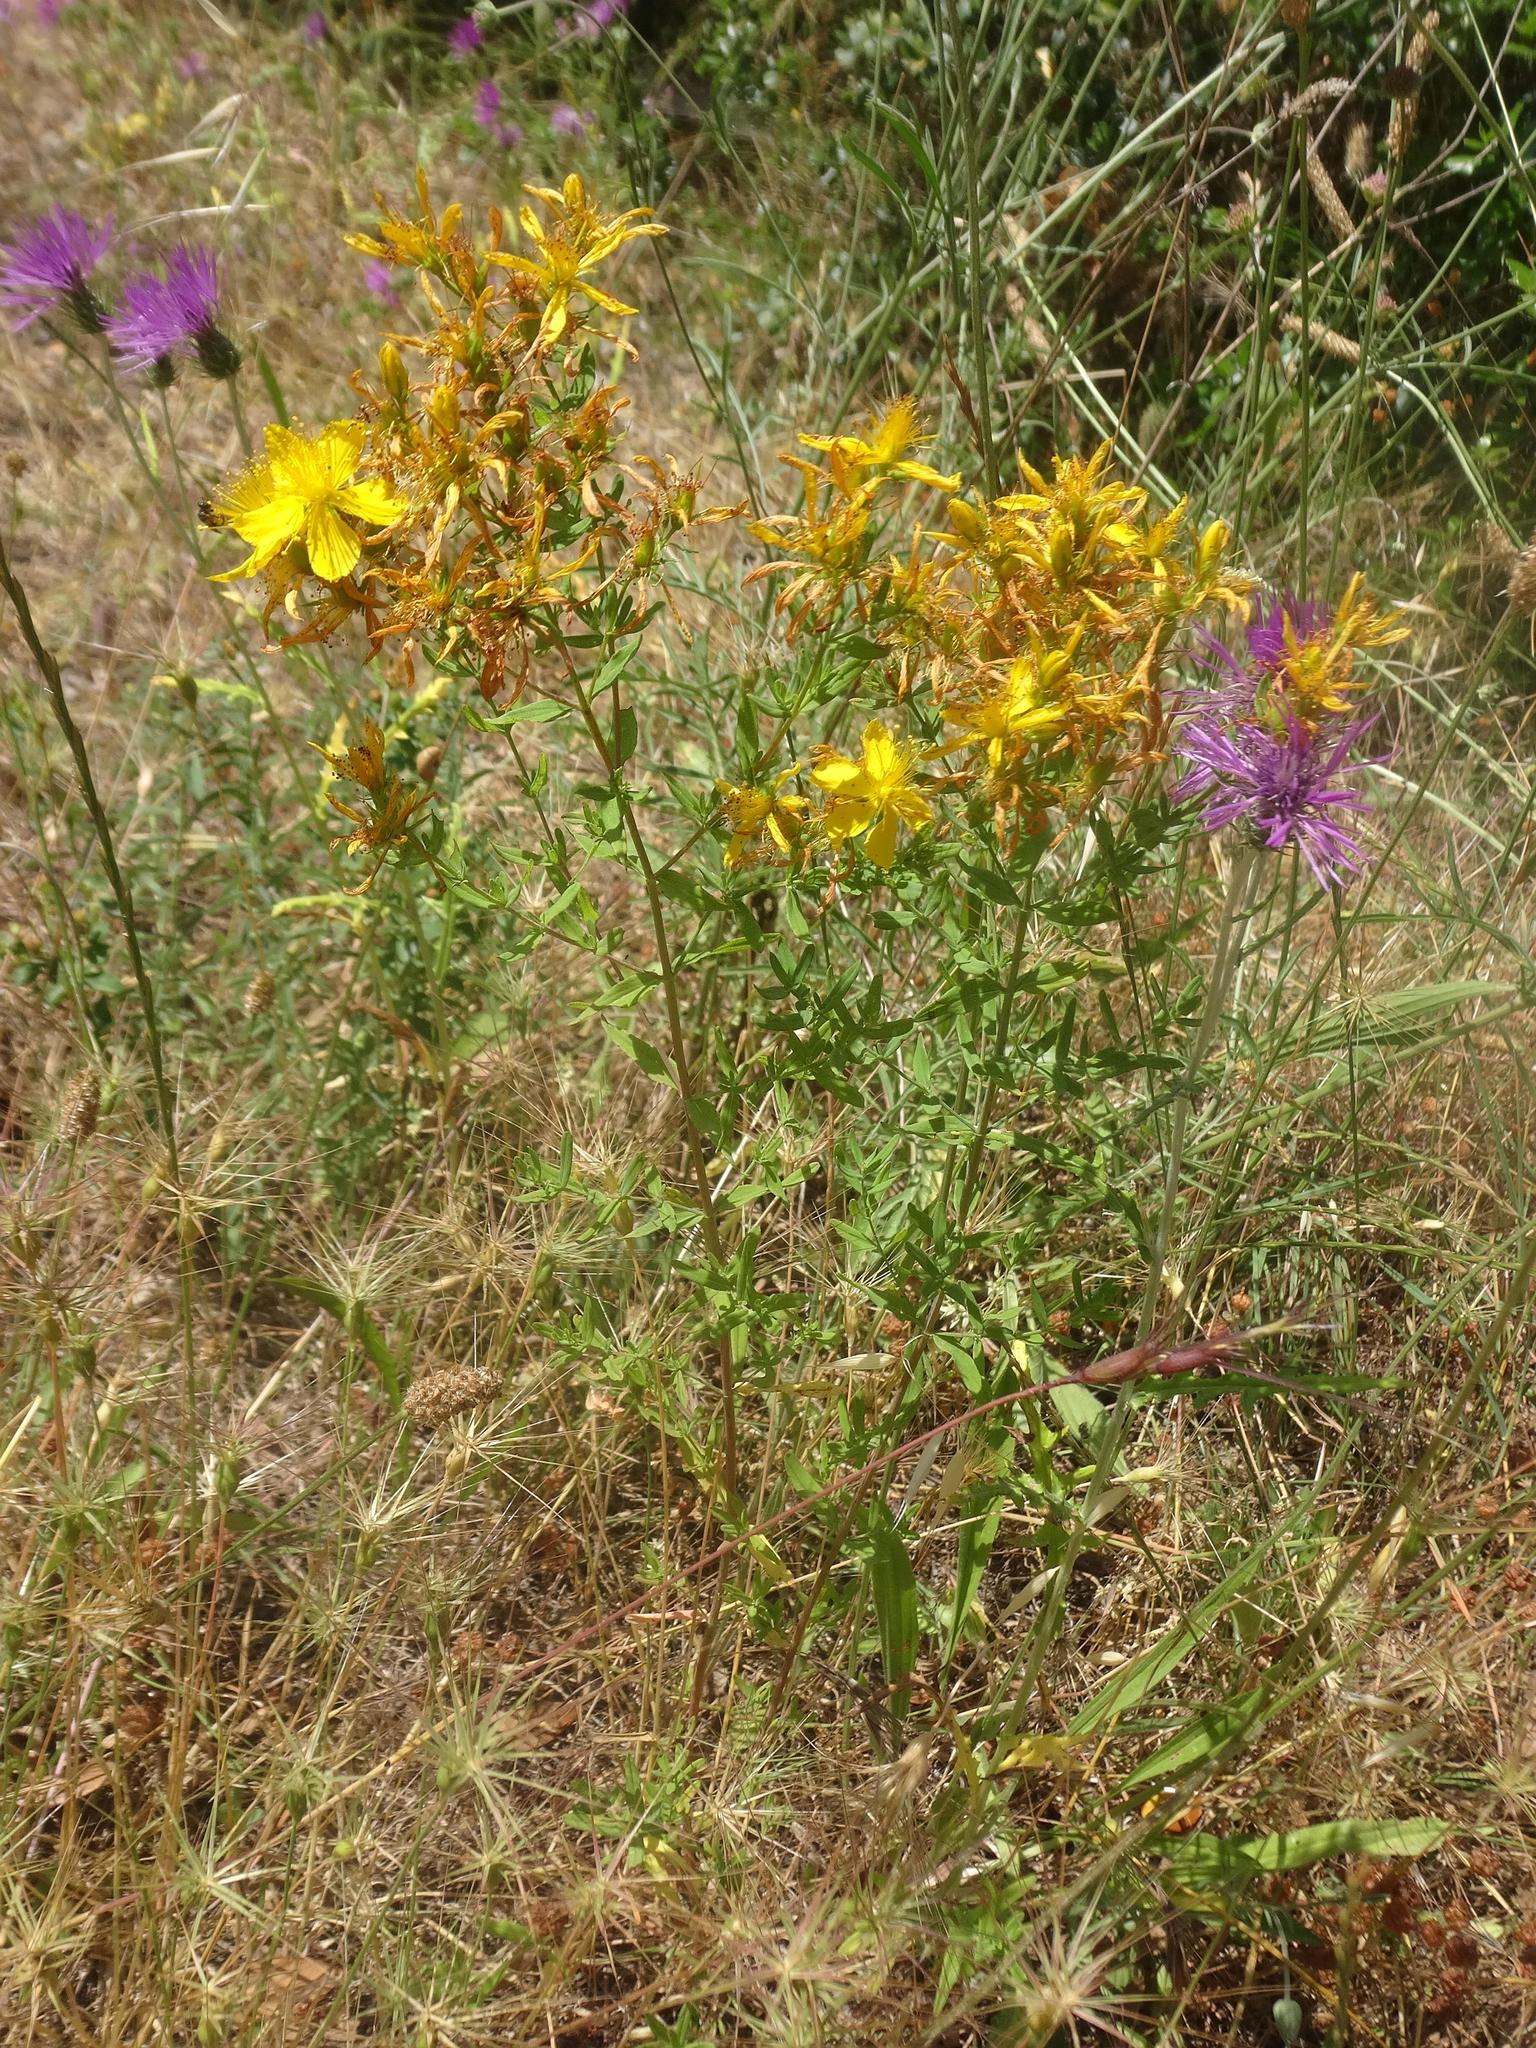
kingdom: Plantae
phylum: Tracheophyta
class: Magnoliopsida
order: Malpighiales
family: Hypericaceae
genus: Hypericum
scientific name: Hypericum perforatum
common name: Common st. johnswort
